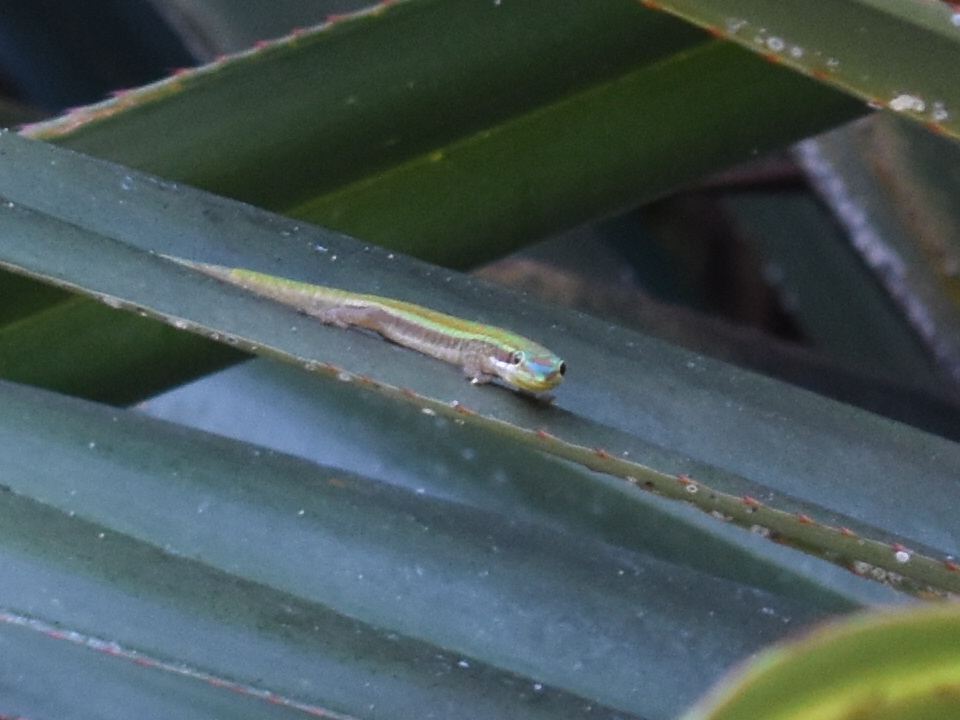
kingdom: Animalia
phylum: Chordata
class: Squamata
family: Gekkonidae
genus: Phelsuma
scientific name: Phelsuma ornata
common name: Ornate day gecko
